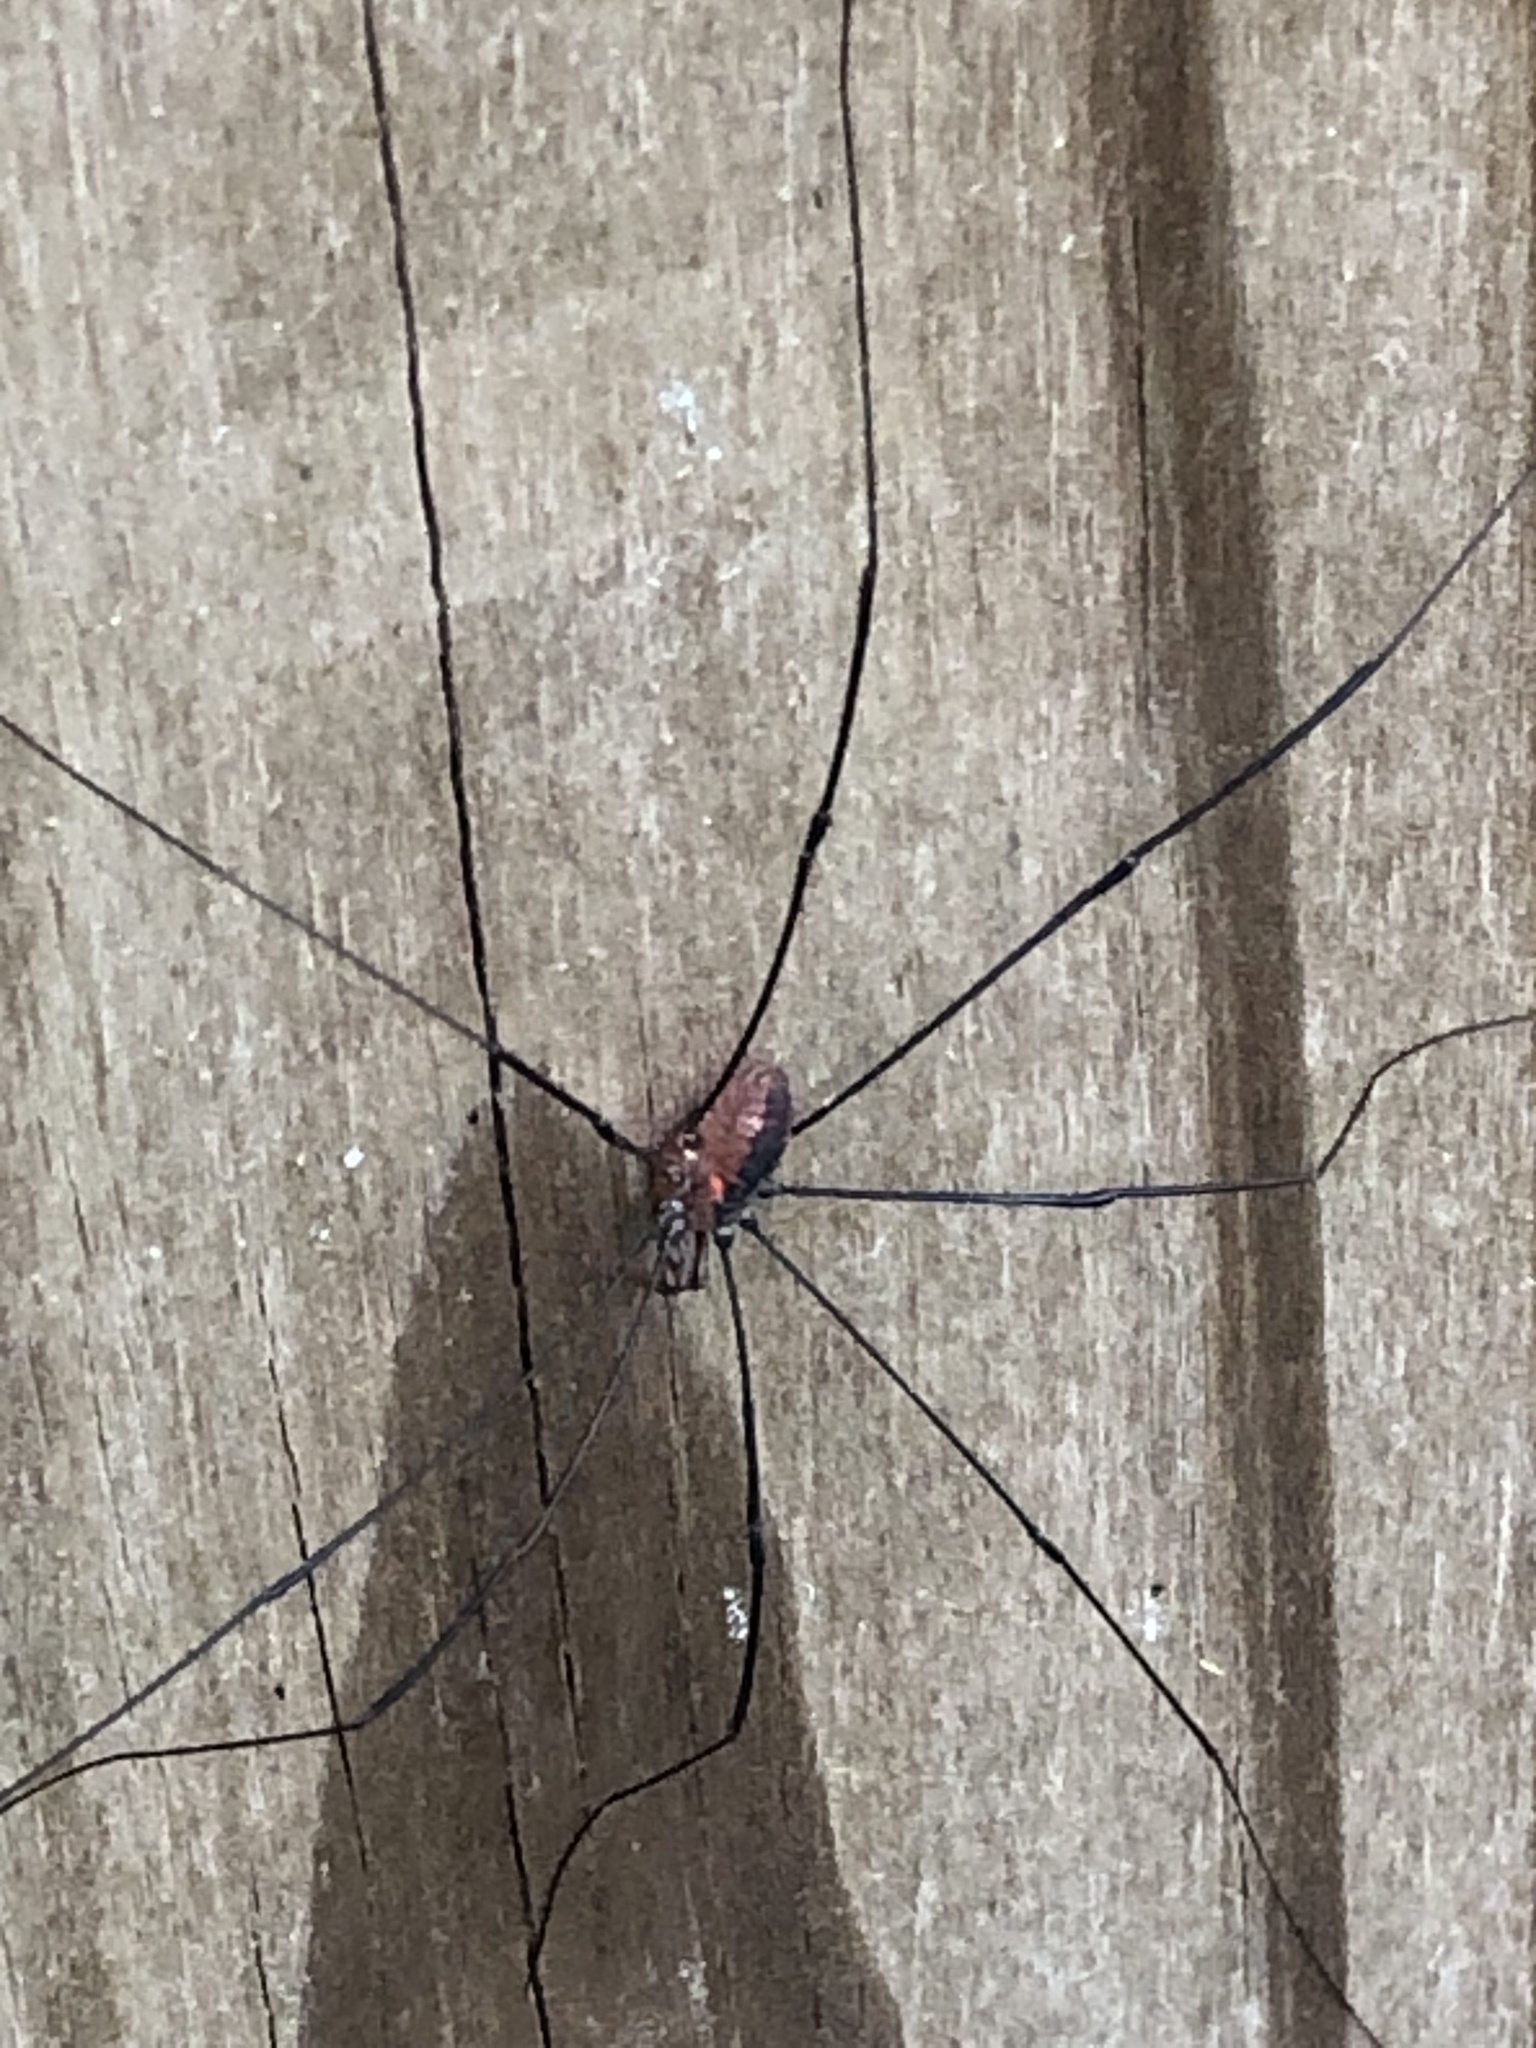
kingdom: Animalia
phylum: Arthropoda
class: Arachnida
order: Opiliones
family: Sclerosomatidae
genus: Leiobunum
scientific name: Leiobunum vittatum
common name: Eastern harvestman
